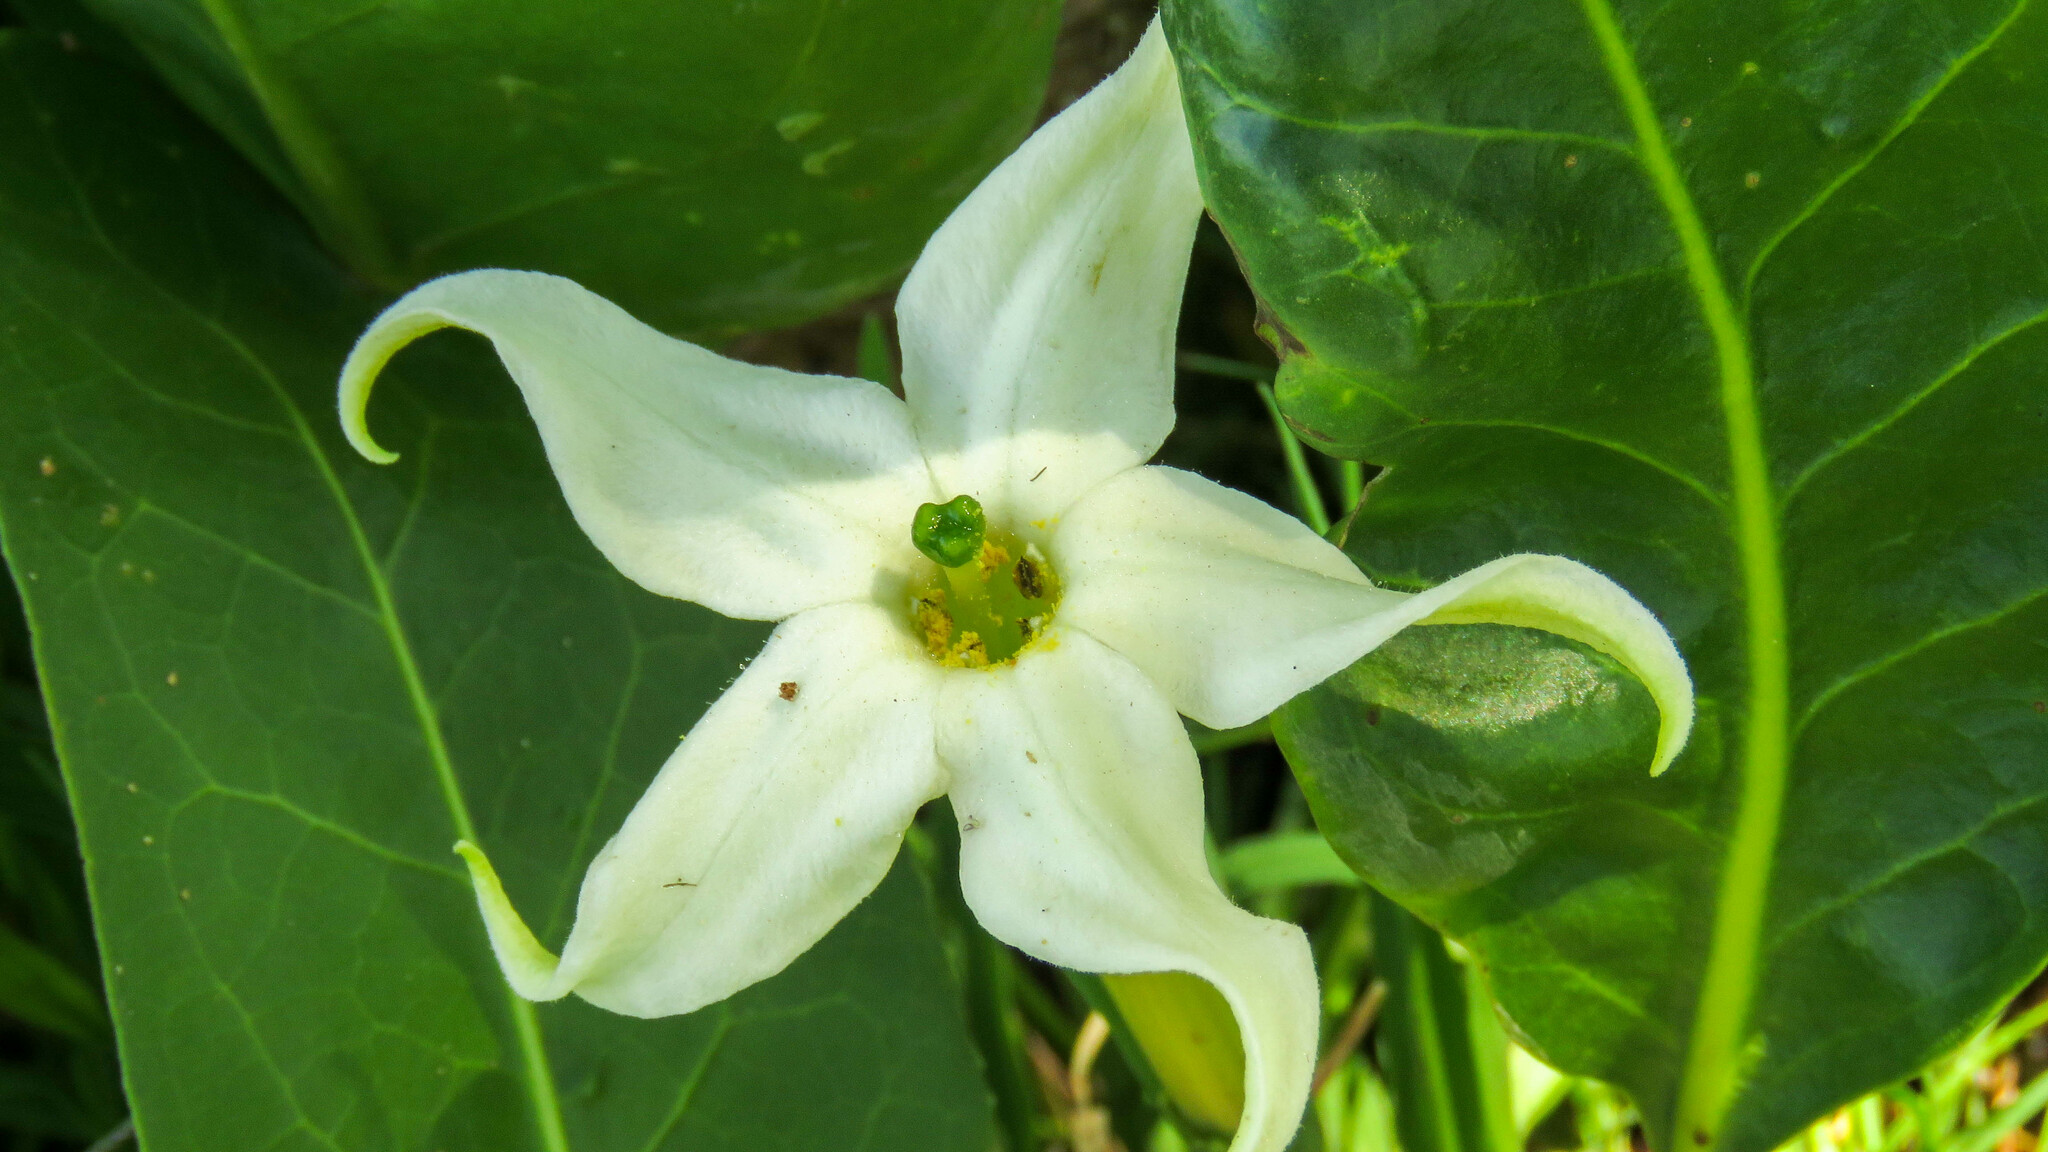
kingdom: Plantae
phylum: Tracheophyta
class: Magnoliopsida
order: Solanales
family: Solanaceae
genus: Jaborosa
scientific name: Jaborosa integrifolia
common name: Springblossom
